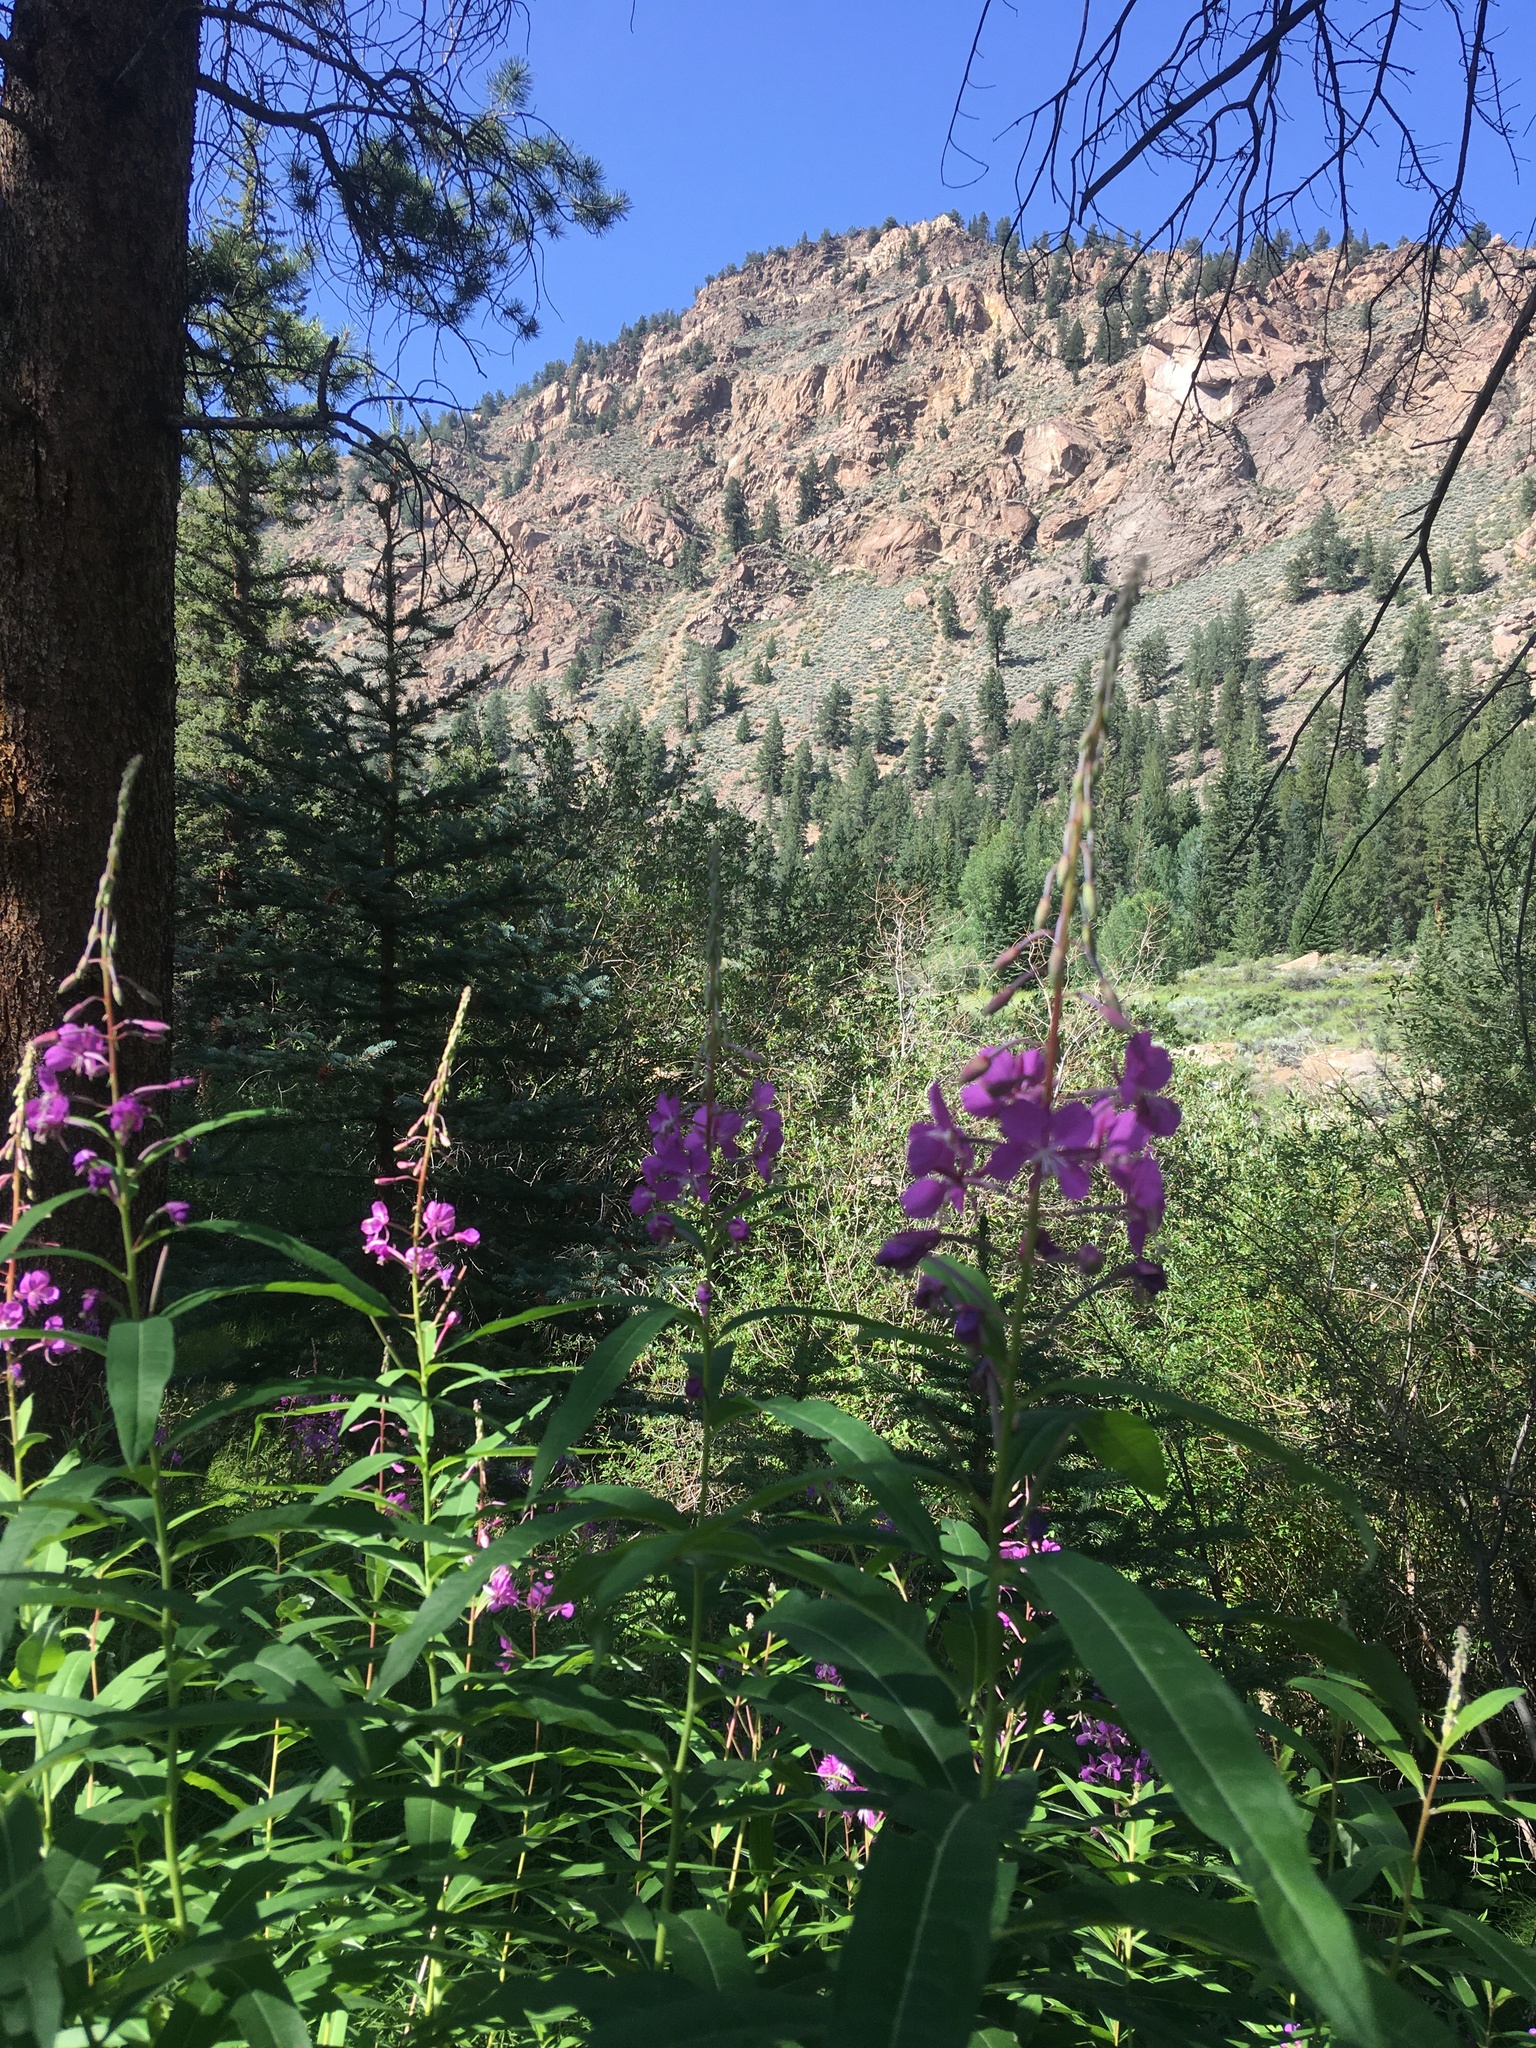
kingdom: Plantae
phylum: Tracheophyta
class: Magnoliopsida
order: Myrtales
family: Onagraceae
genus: Chamaenerion
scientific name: Chamaenerion angustifolium
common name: Fireweed
